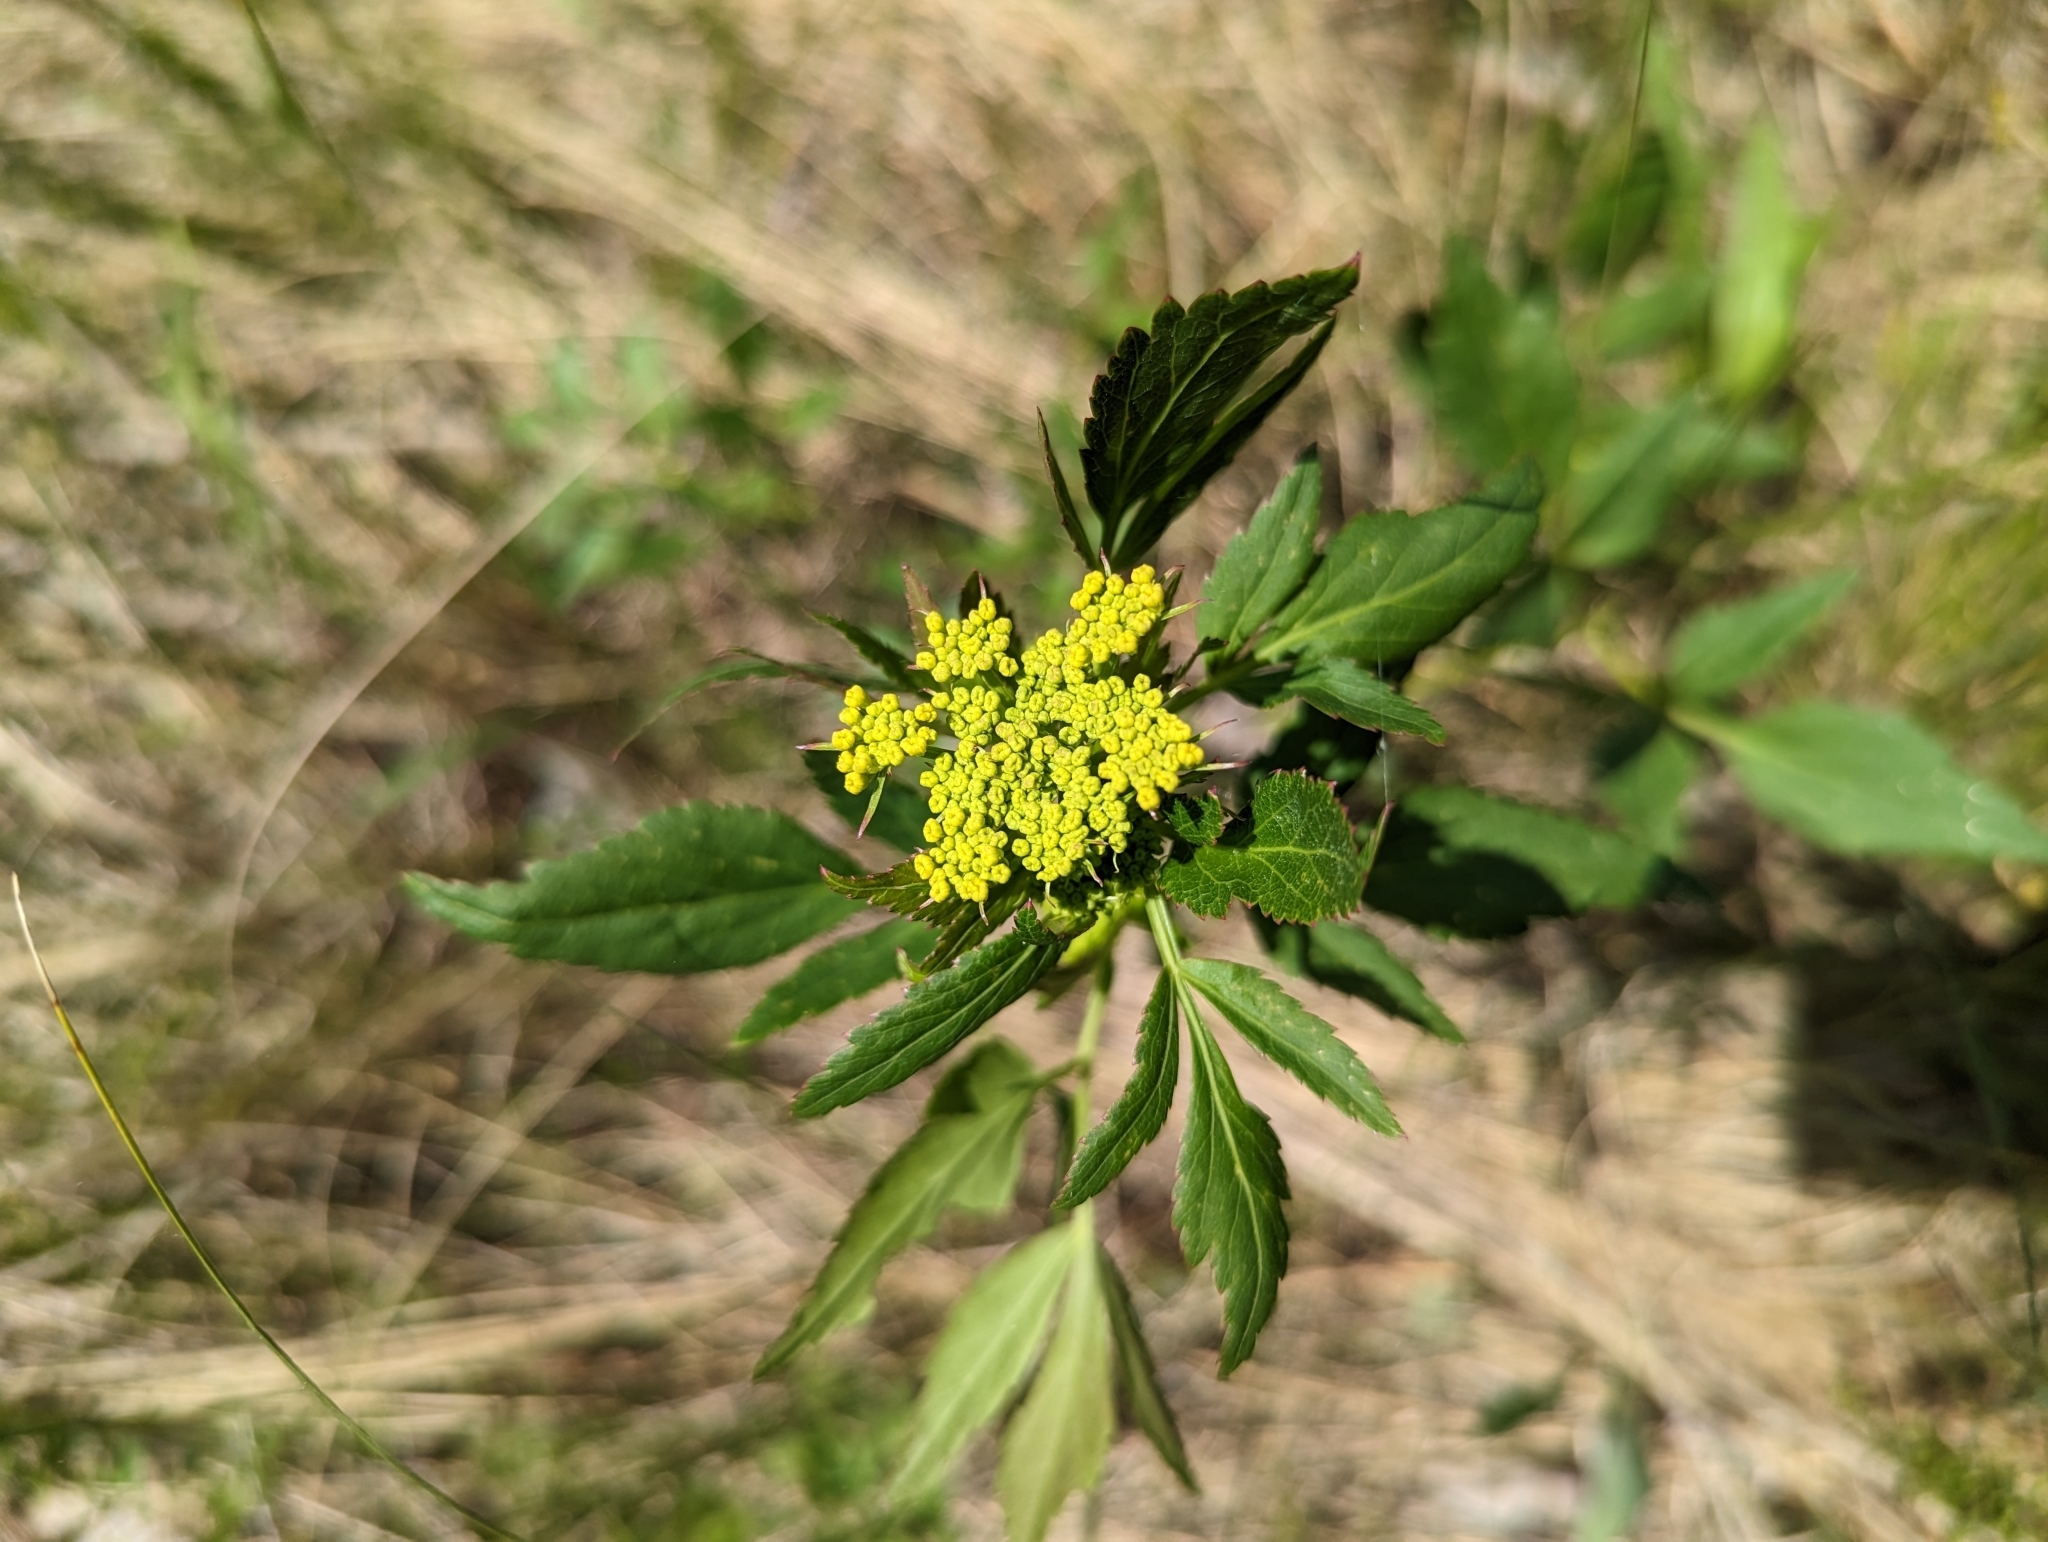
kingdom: Plantae
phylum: Tracheophyta
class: Magnoliopsida
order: Apiales
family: Apiaceae
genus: Zizia
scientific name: Zizia aurea
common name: Golden alexanders
